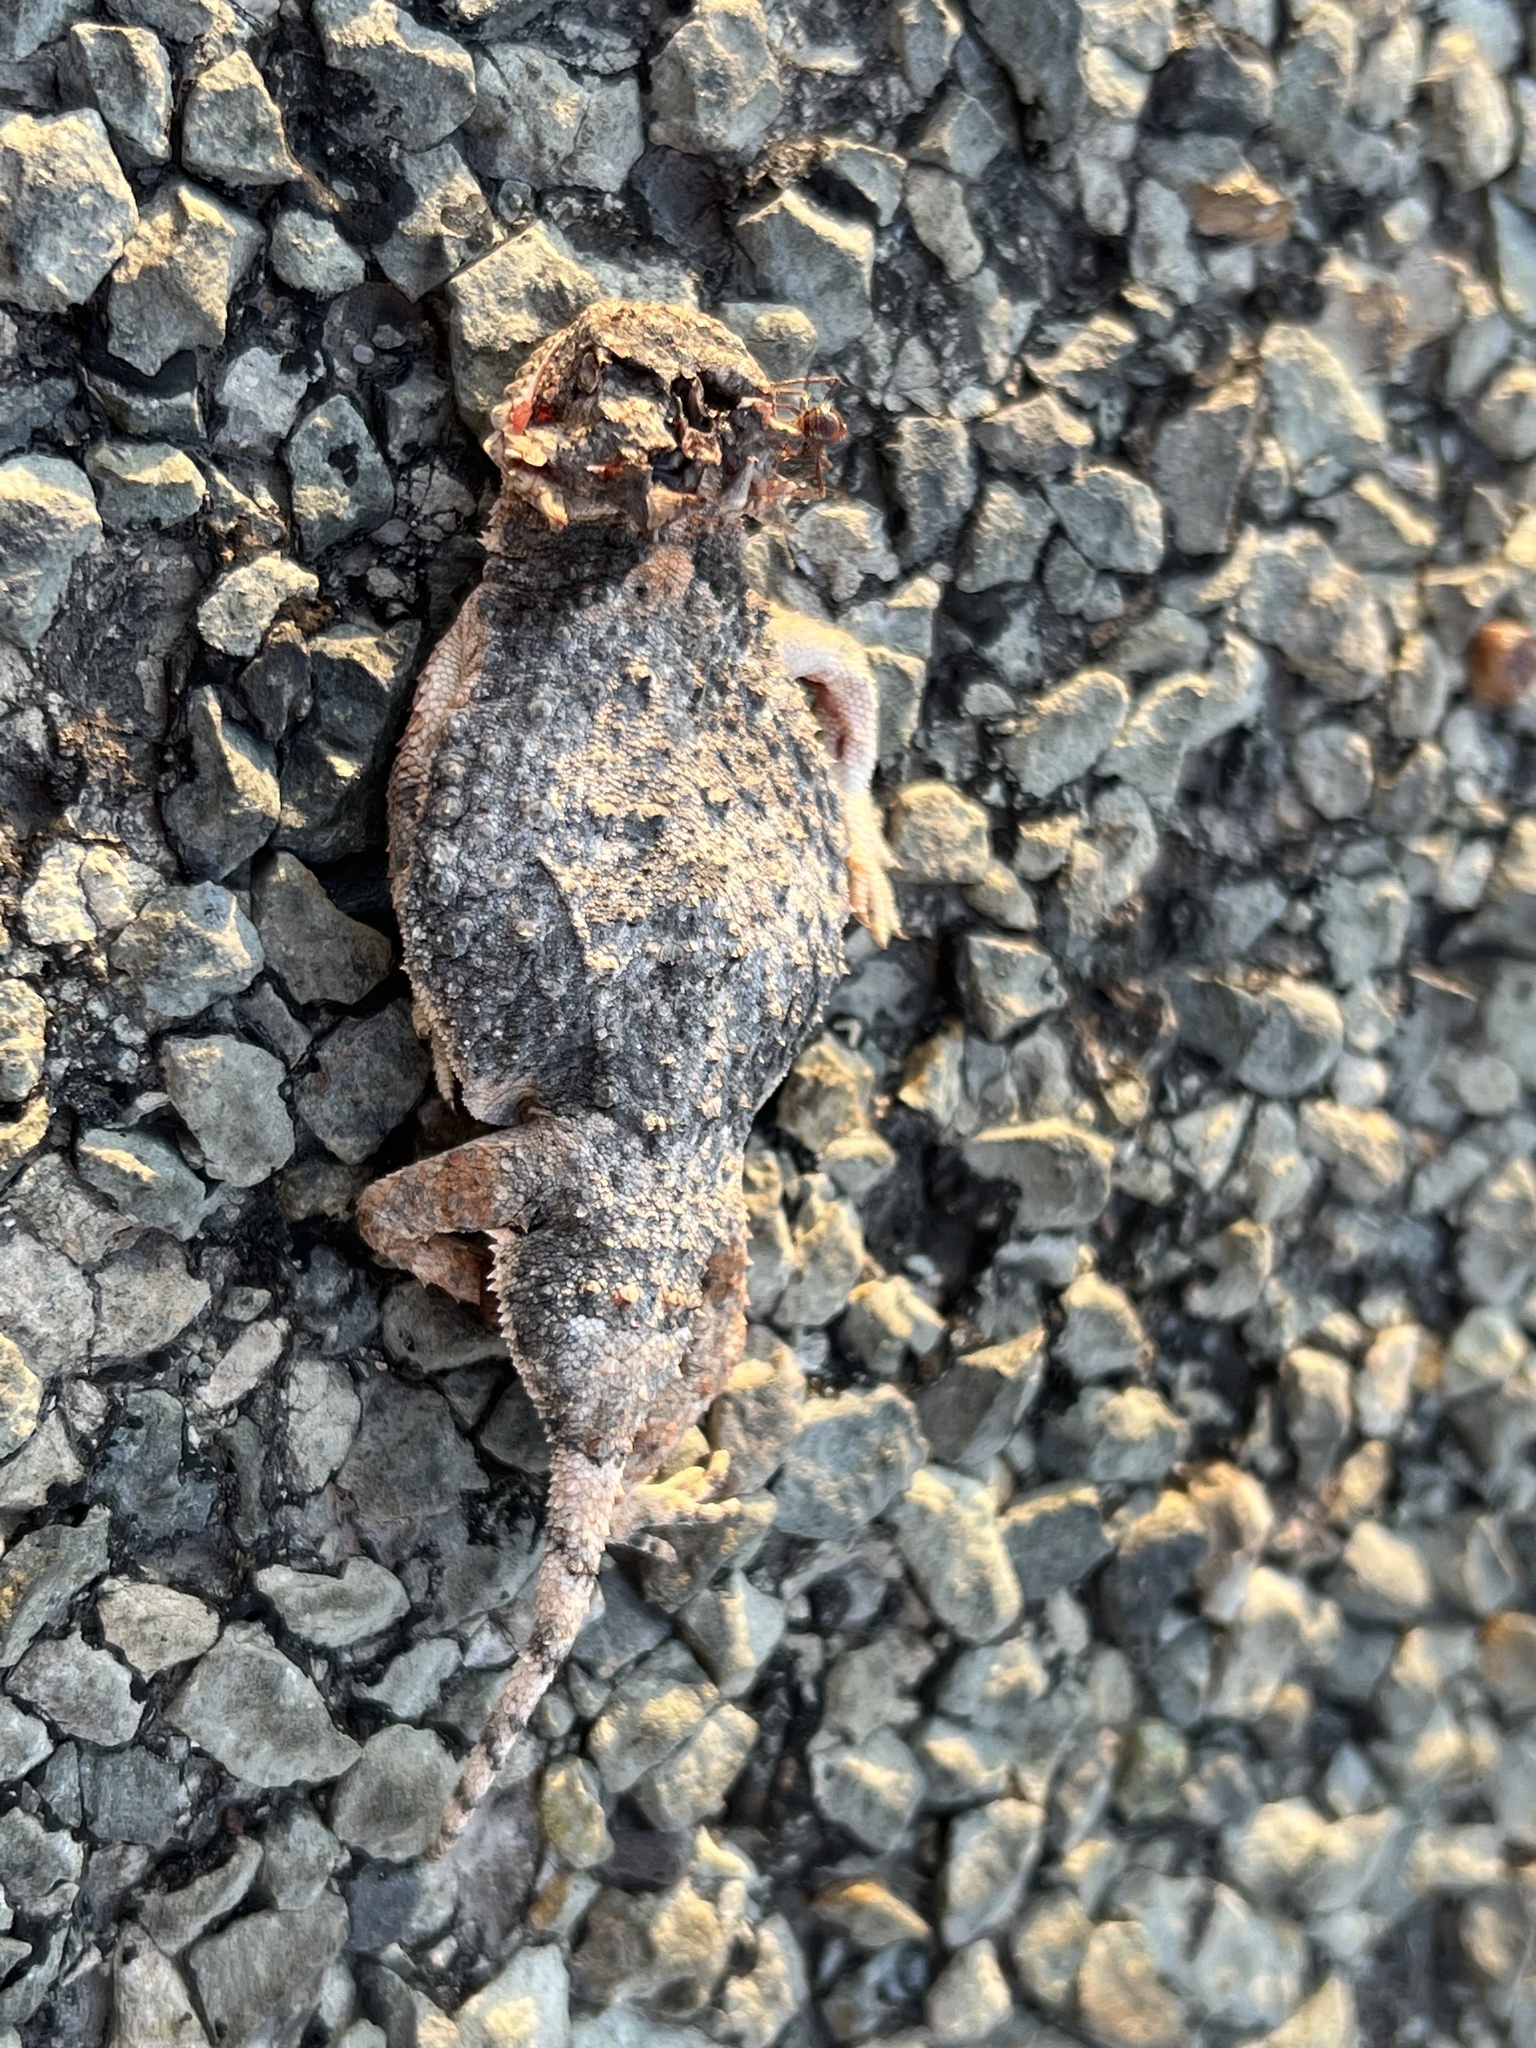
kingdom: Animalia
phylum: Chordata
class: Squamata
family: Phrynosomatidae
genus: Phrynosoma
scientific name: Phrynosoma modestum
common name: Roundtail horned lizard
